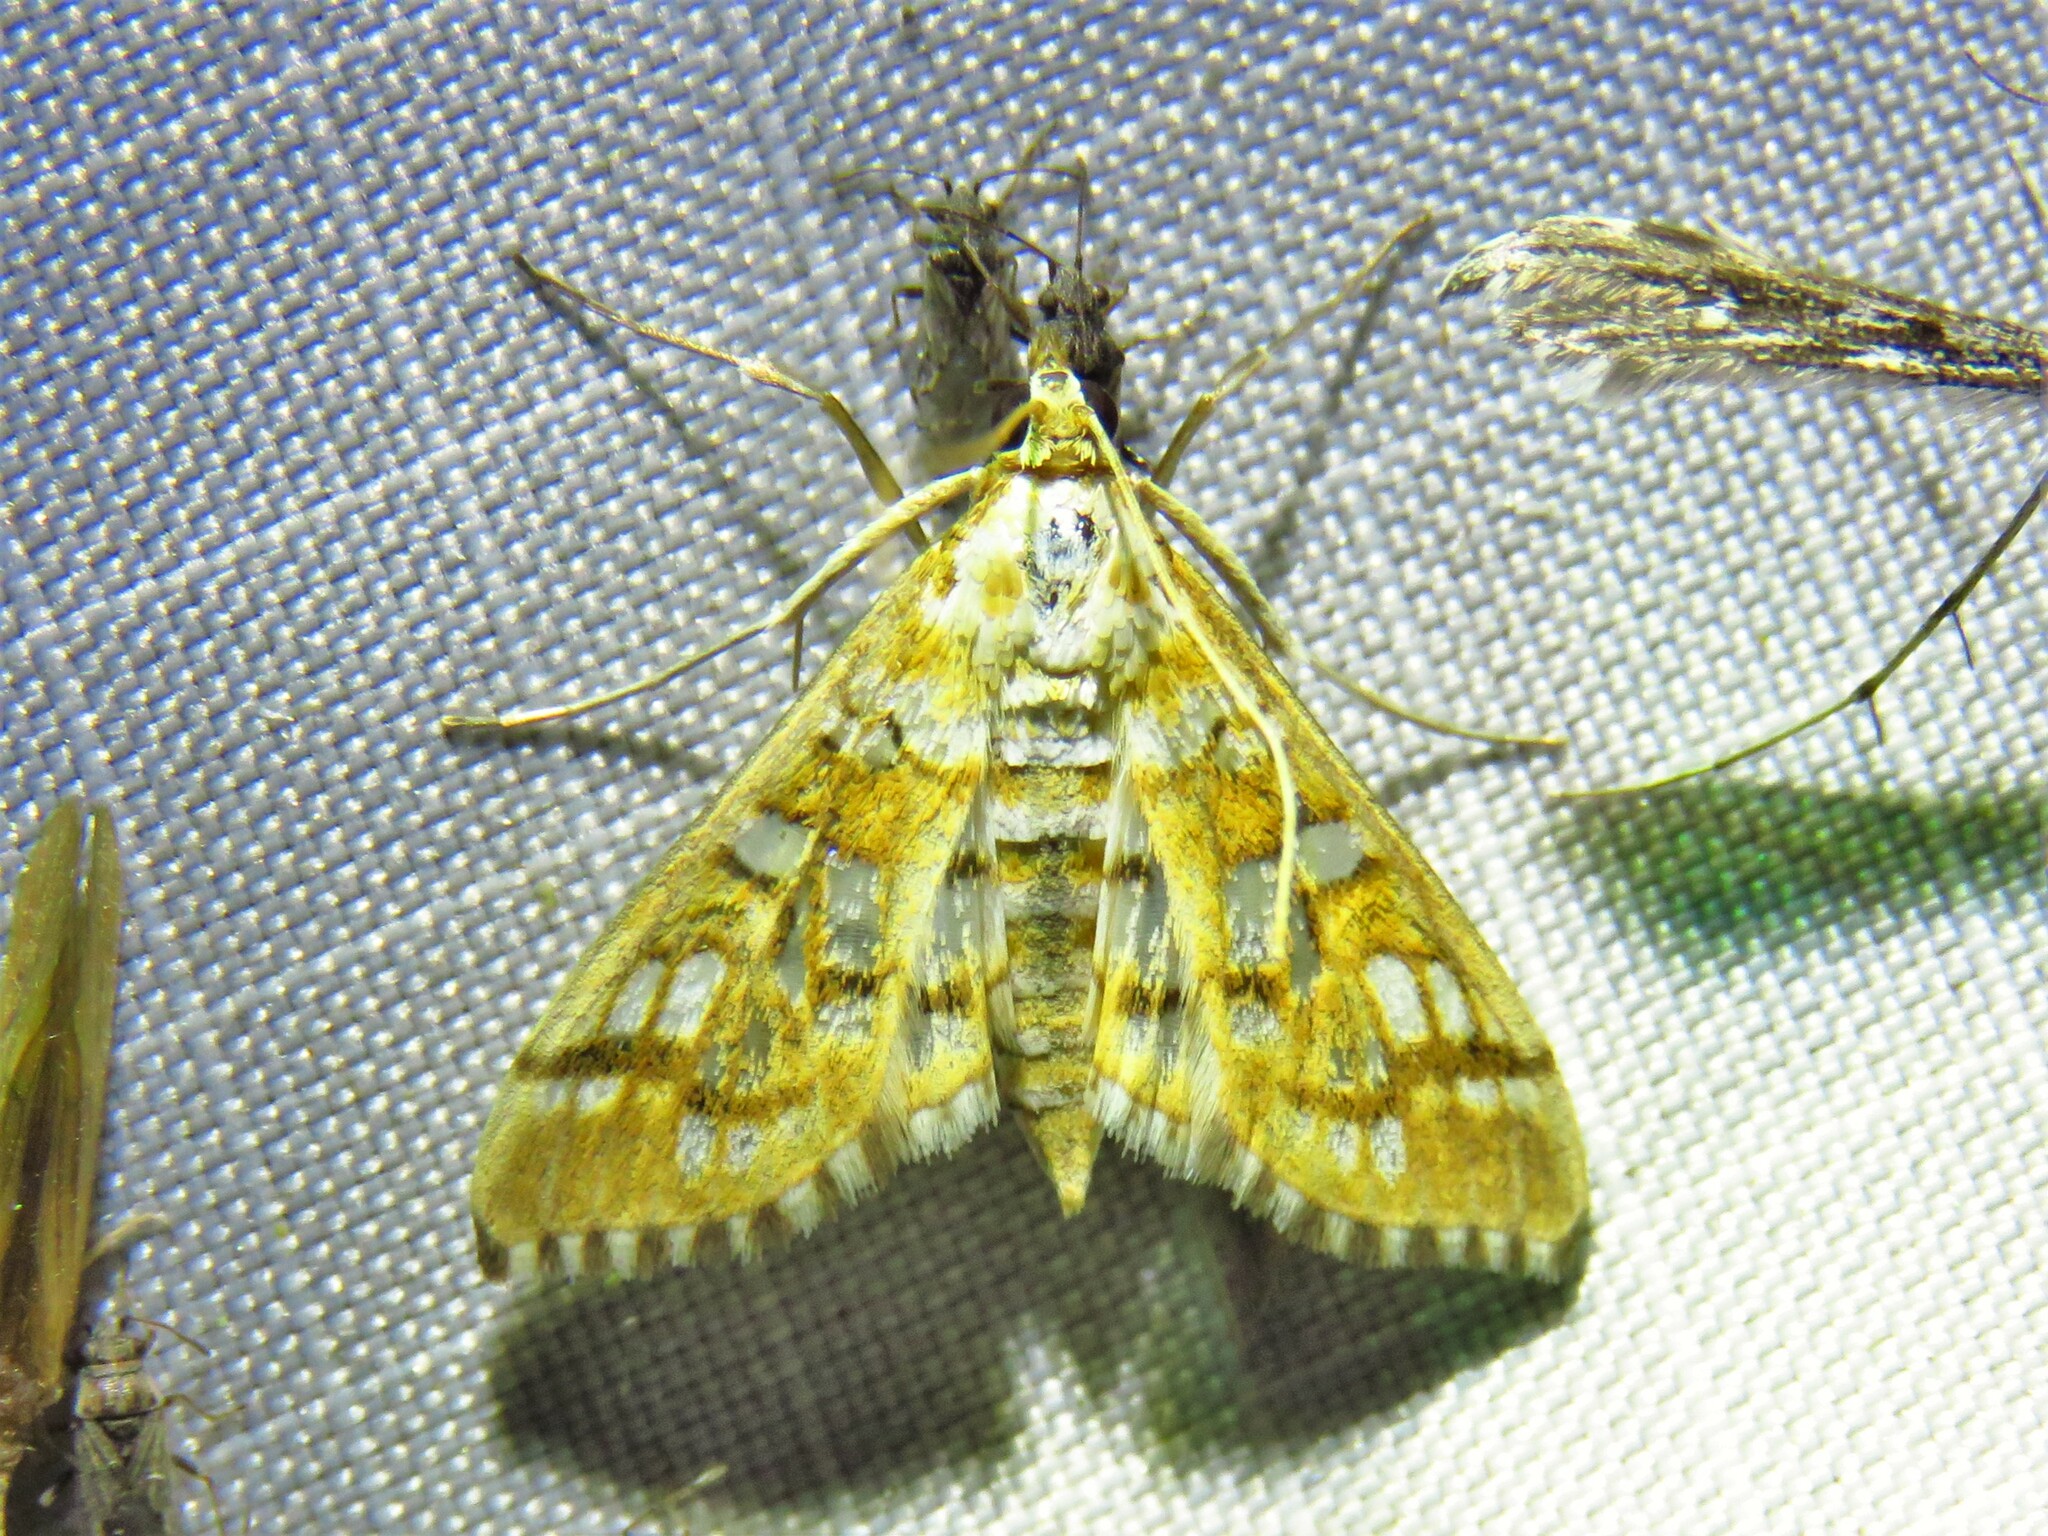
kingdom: Animalia
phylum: Arthropoda
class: Insecta
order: Lepidoptera
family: Crambidae
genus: Epipagis
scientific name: Epipagis fenestralis
